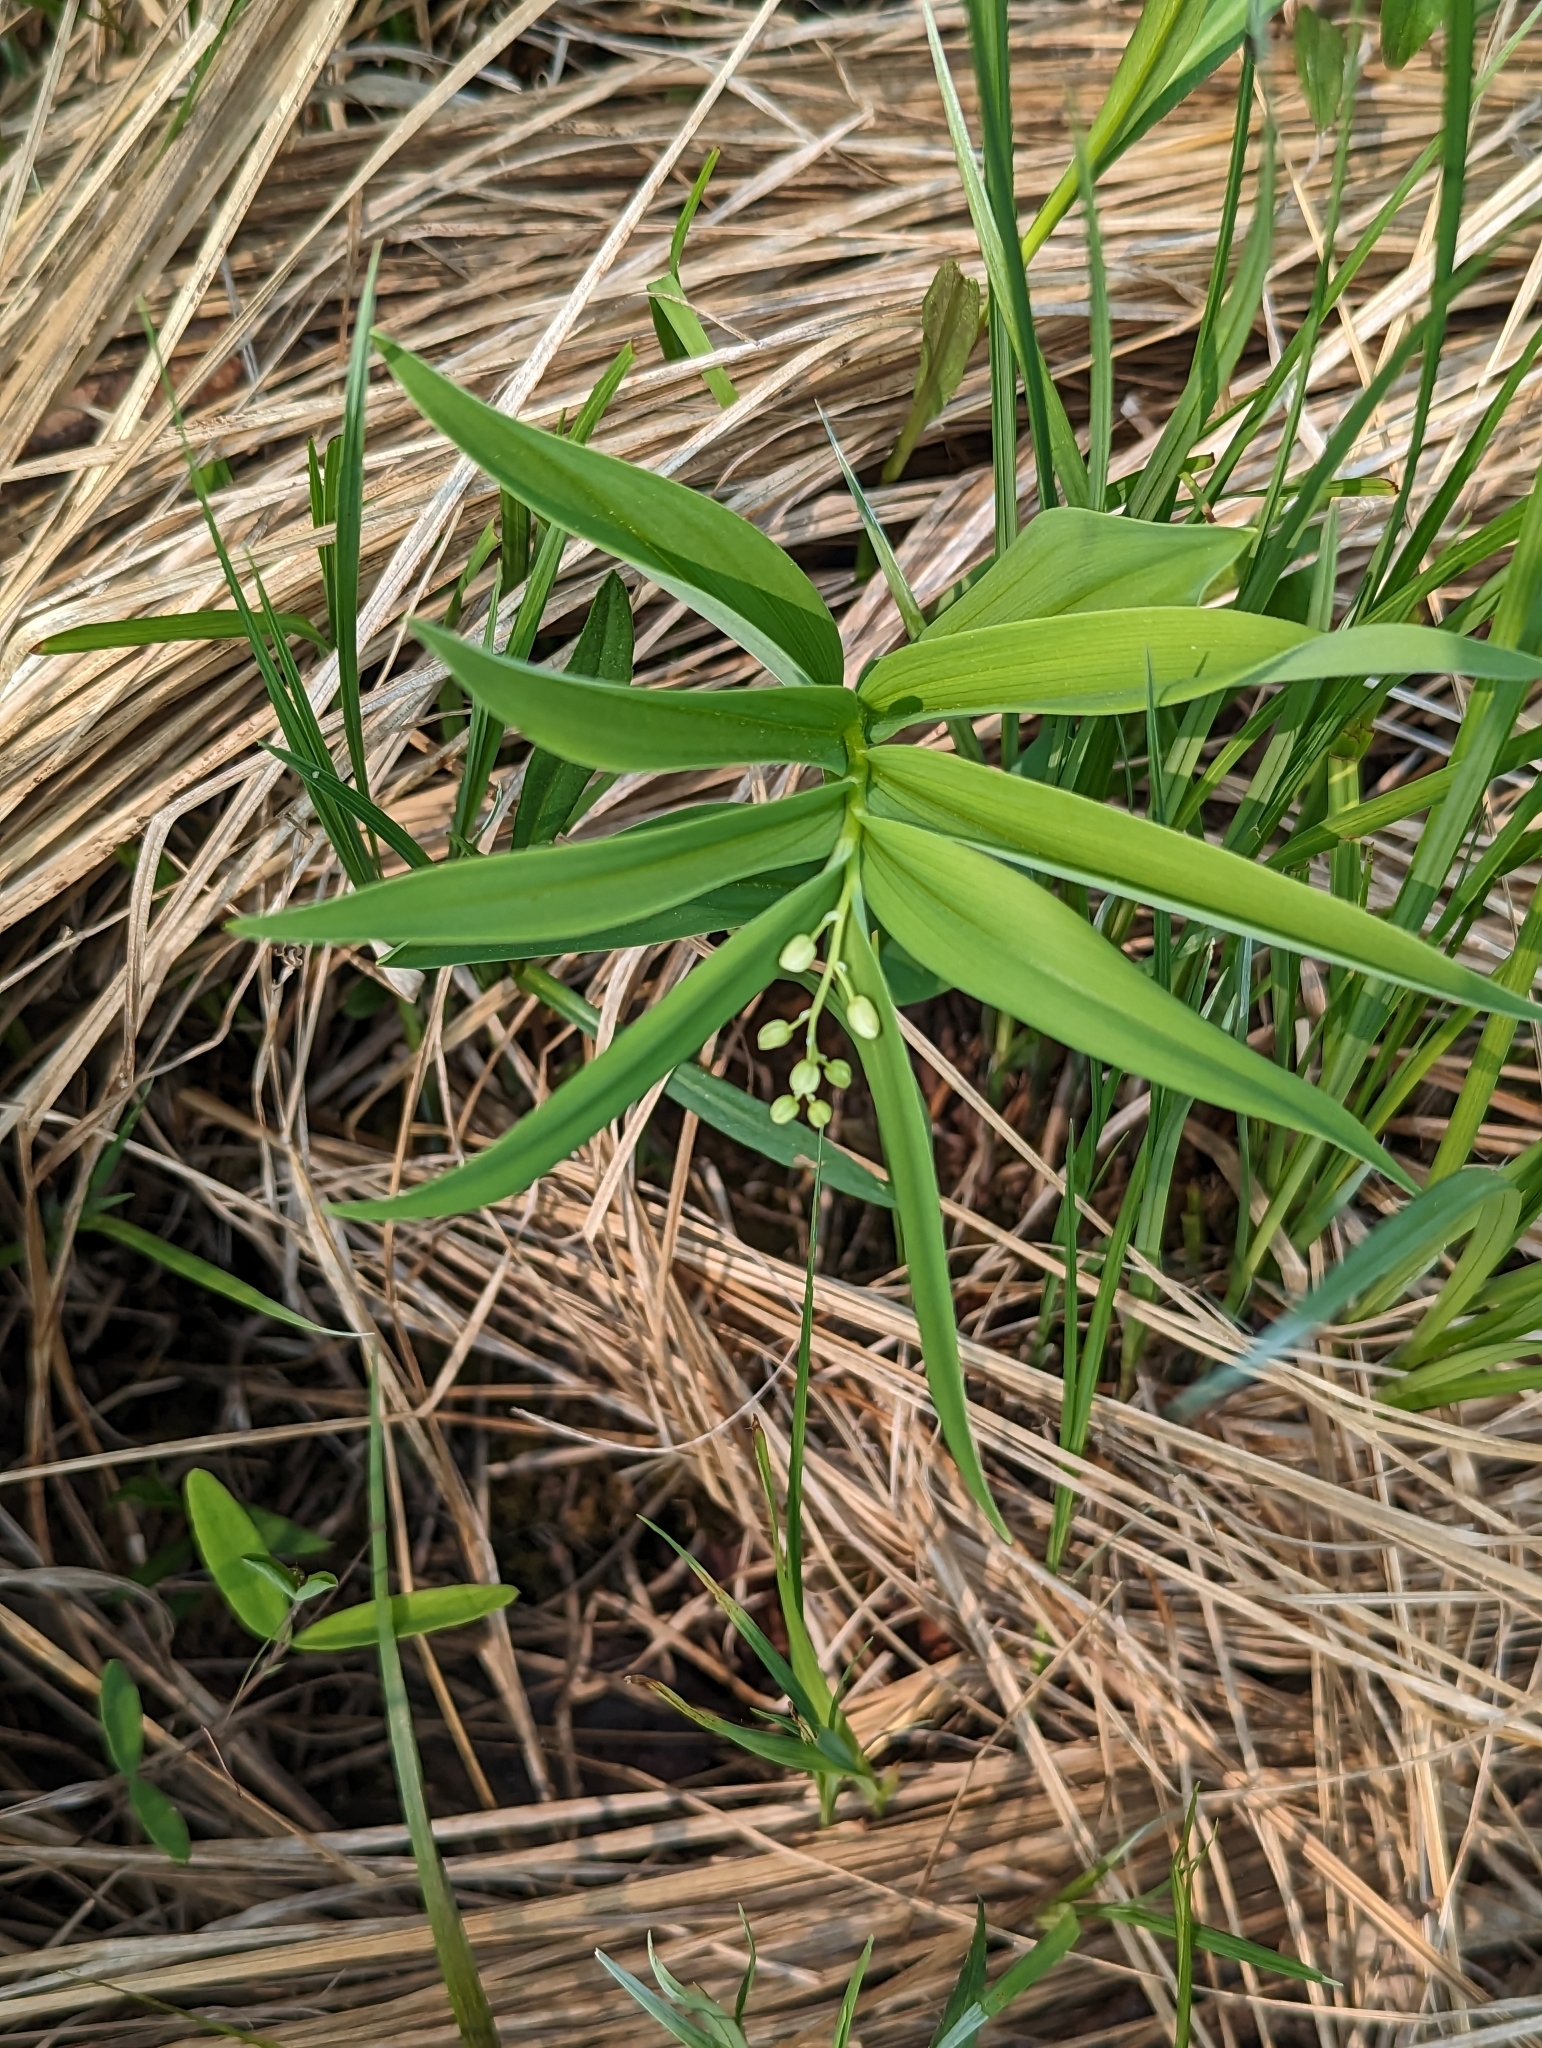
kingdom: Plantae
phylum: Tracheophyta
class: Liliopsida
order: Asparagales
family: Asparagaceae
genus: Maianthemum
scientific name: Maianthemum stellatum
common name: Little false solomon's seal
